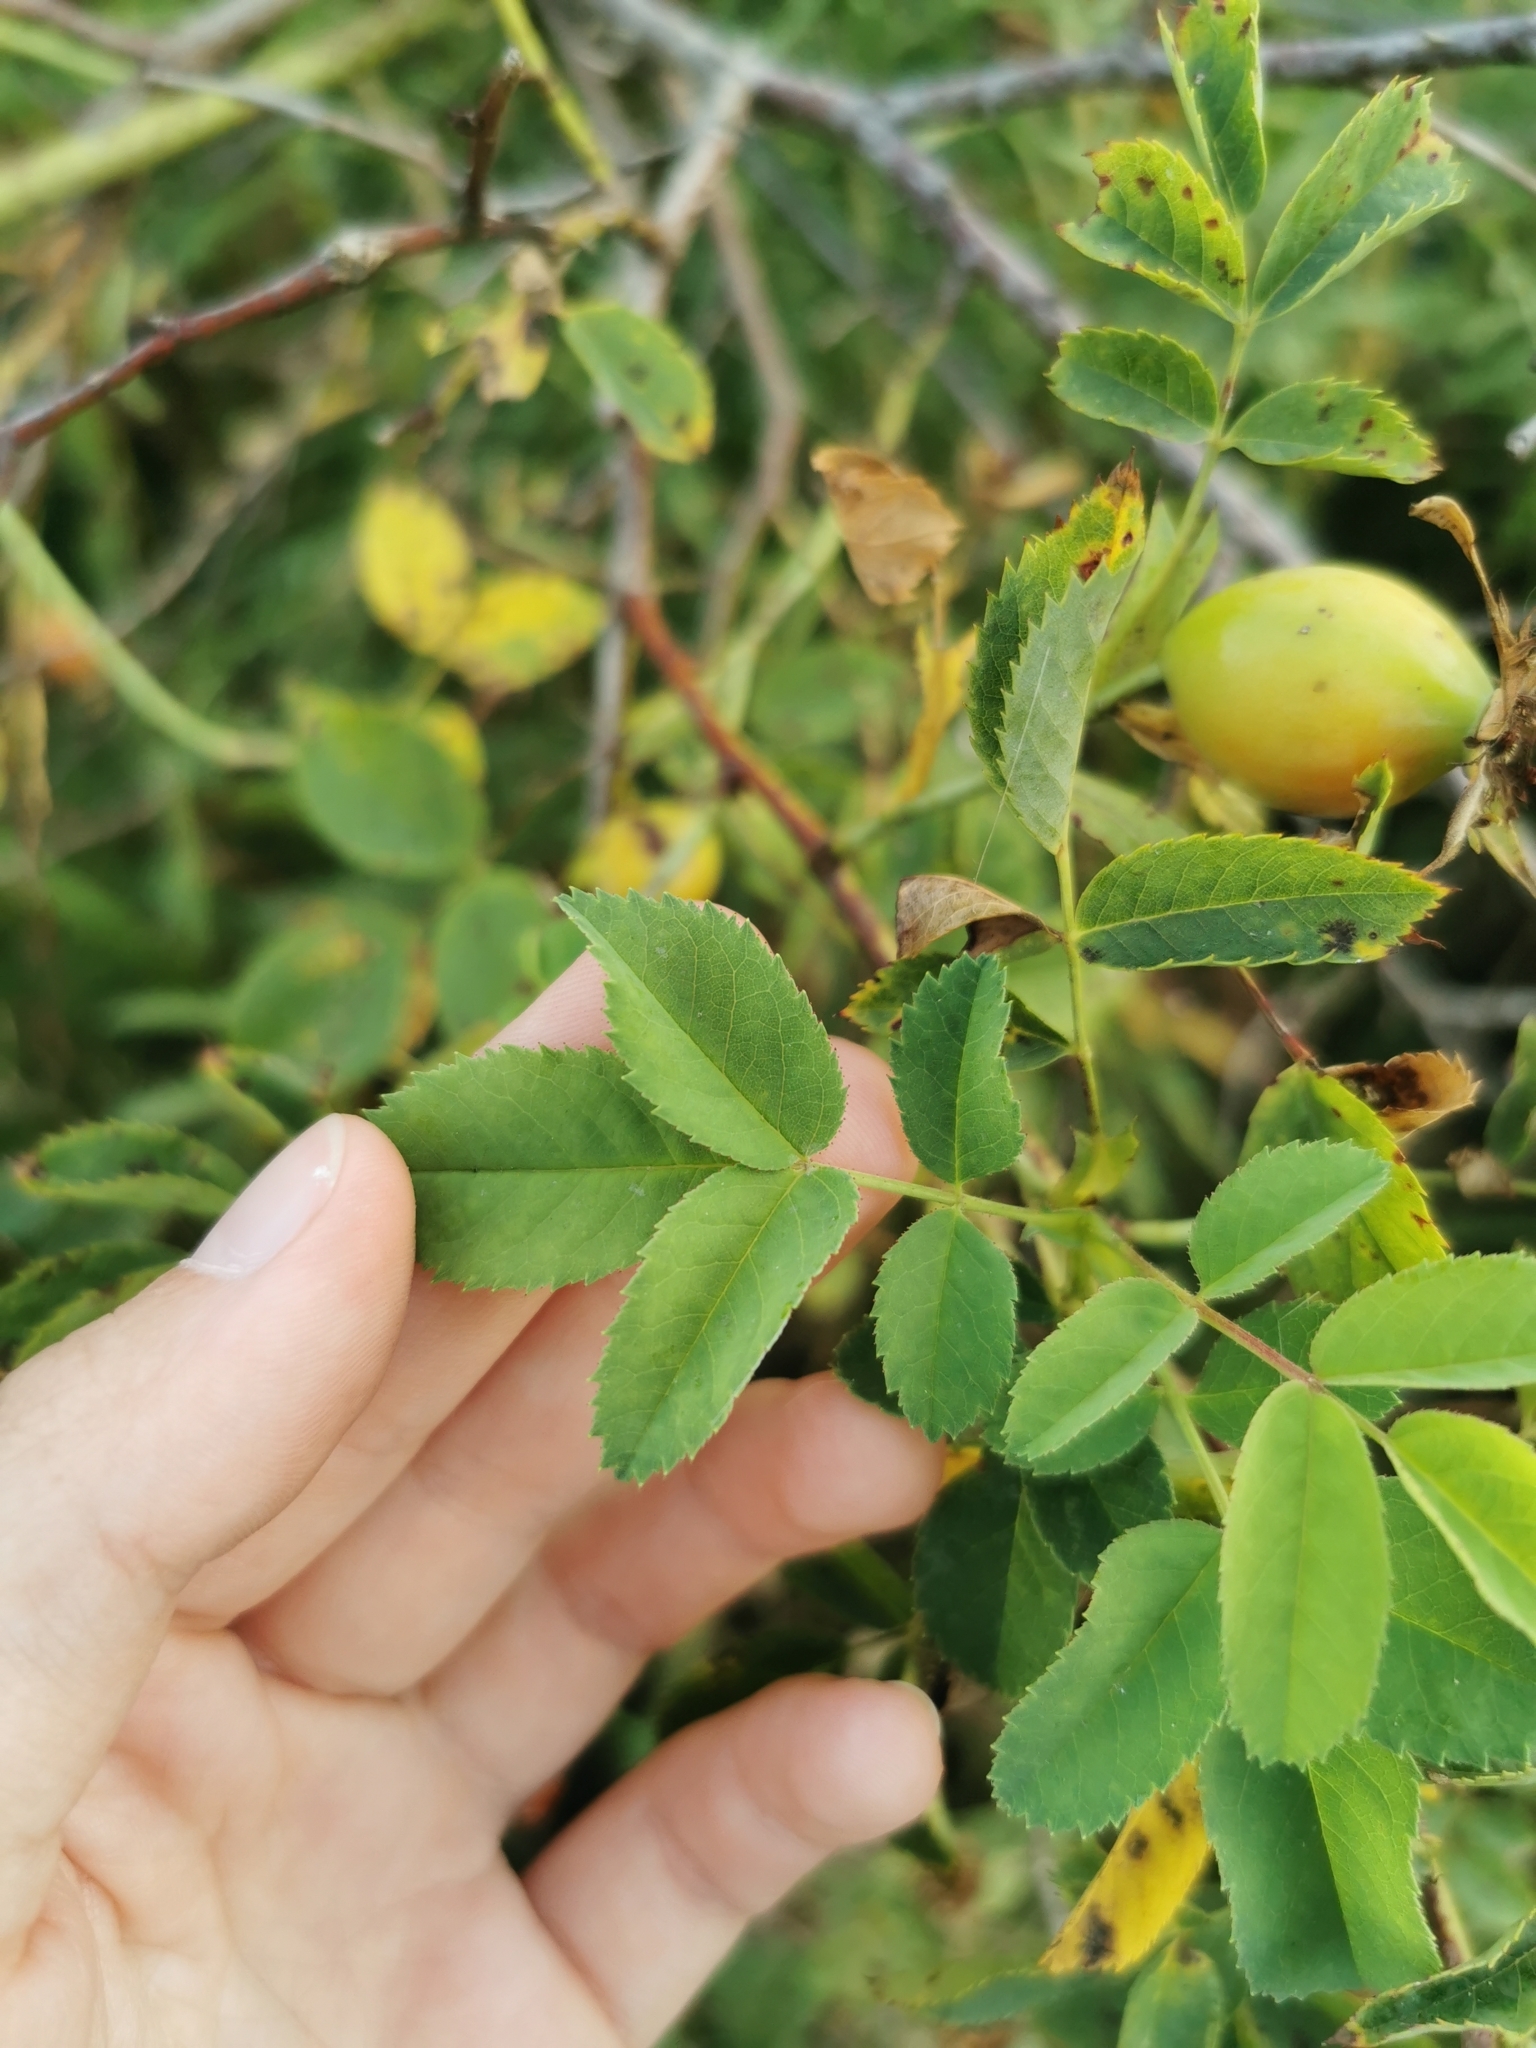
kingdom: Plantae
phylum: Tracheophyta
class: Magnoliopsida
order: Rosales
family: Rosaceae
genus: Rosa
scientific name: Rosa dumalis
